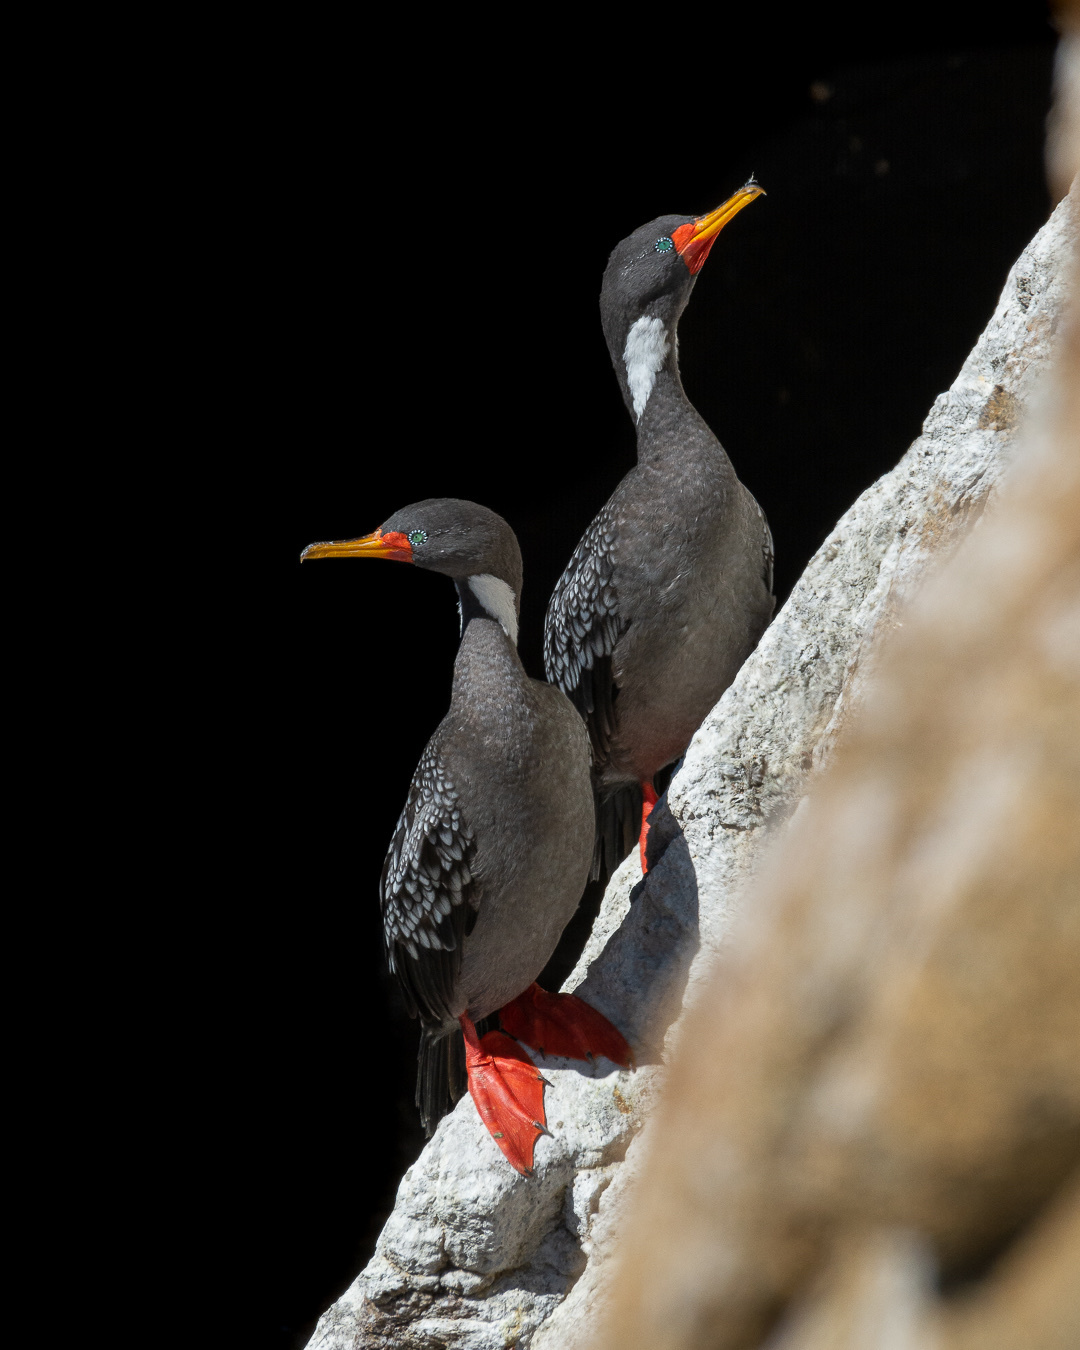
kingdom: Animalia
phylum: Chordata
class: Aves
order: Suliformes
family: Phalacrocoracidae
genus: Phalacrocorax
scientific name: Phalacrocorax gaimardi
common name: Red-legged cormorant
